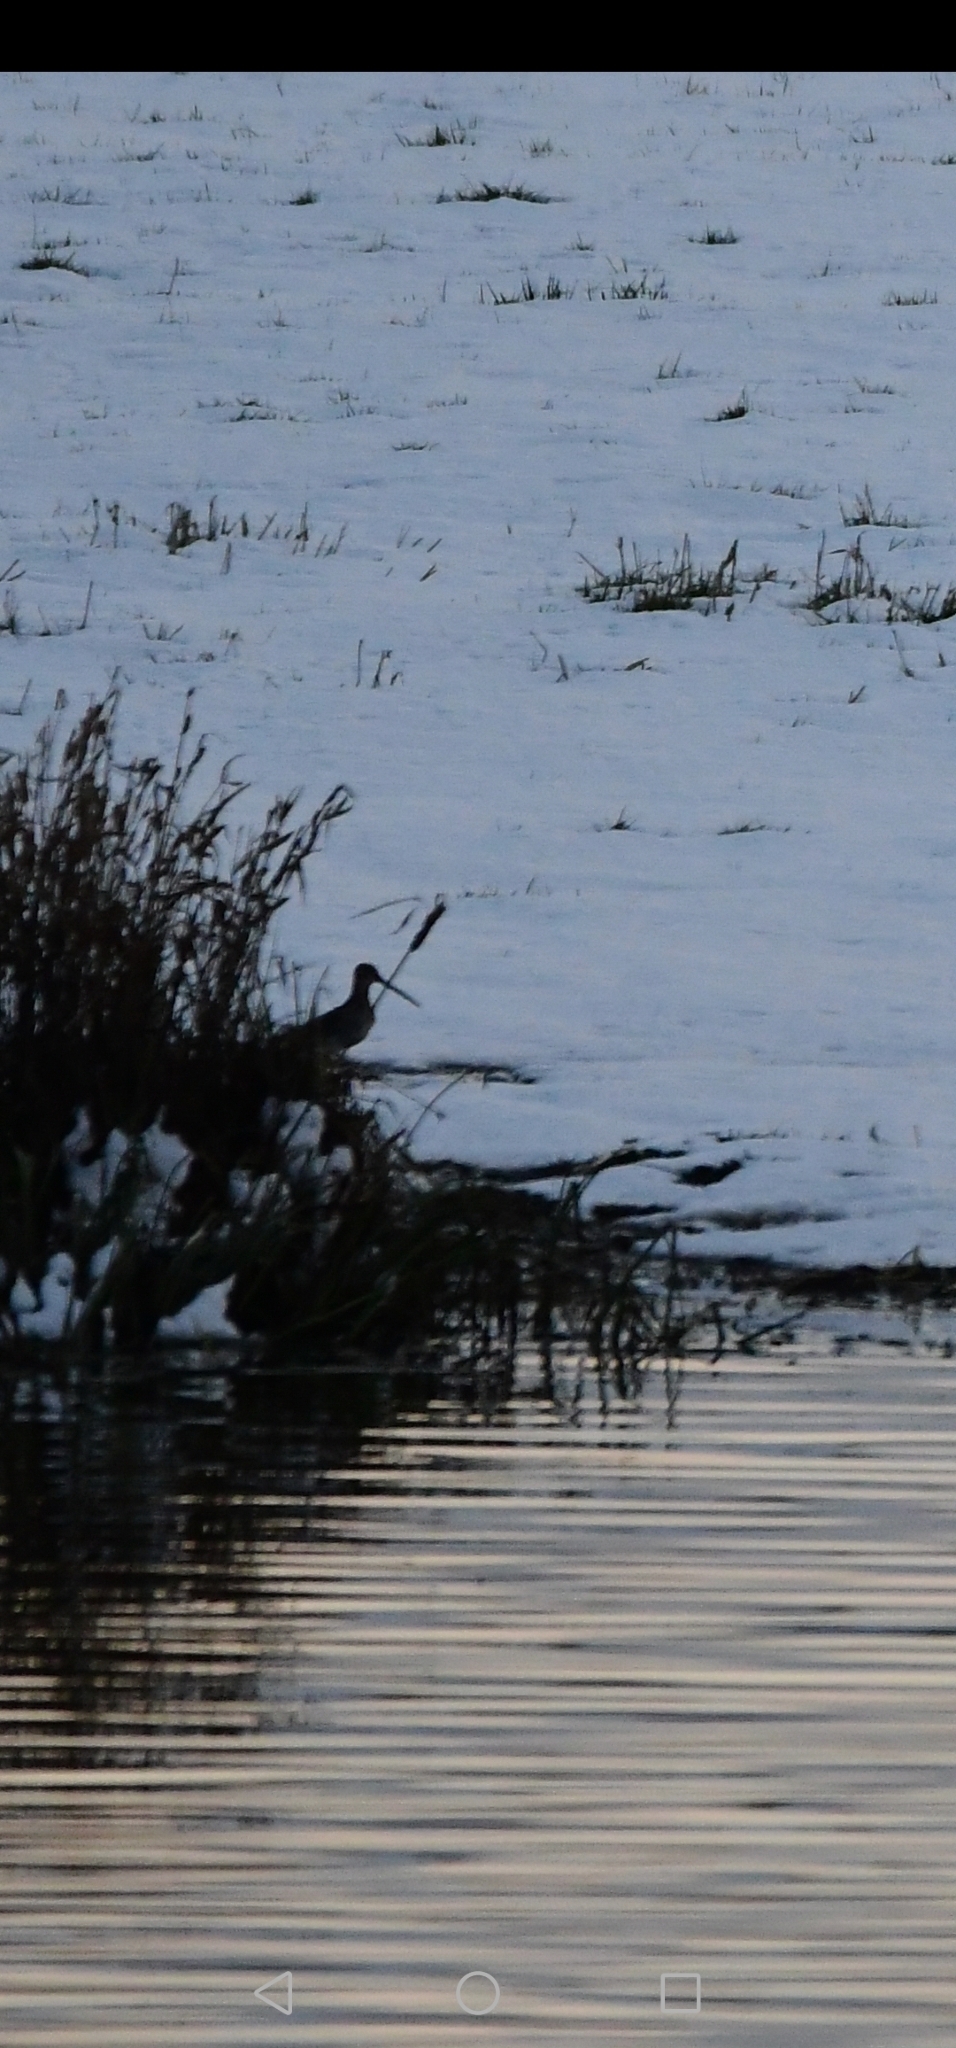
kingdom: Animalia
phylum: Chordata
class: Aves
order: Charadriiformes
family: Scolopacidae
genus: Gallinago
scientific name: Gallinago gallinago
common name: Common snipe
